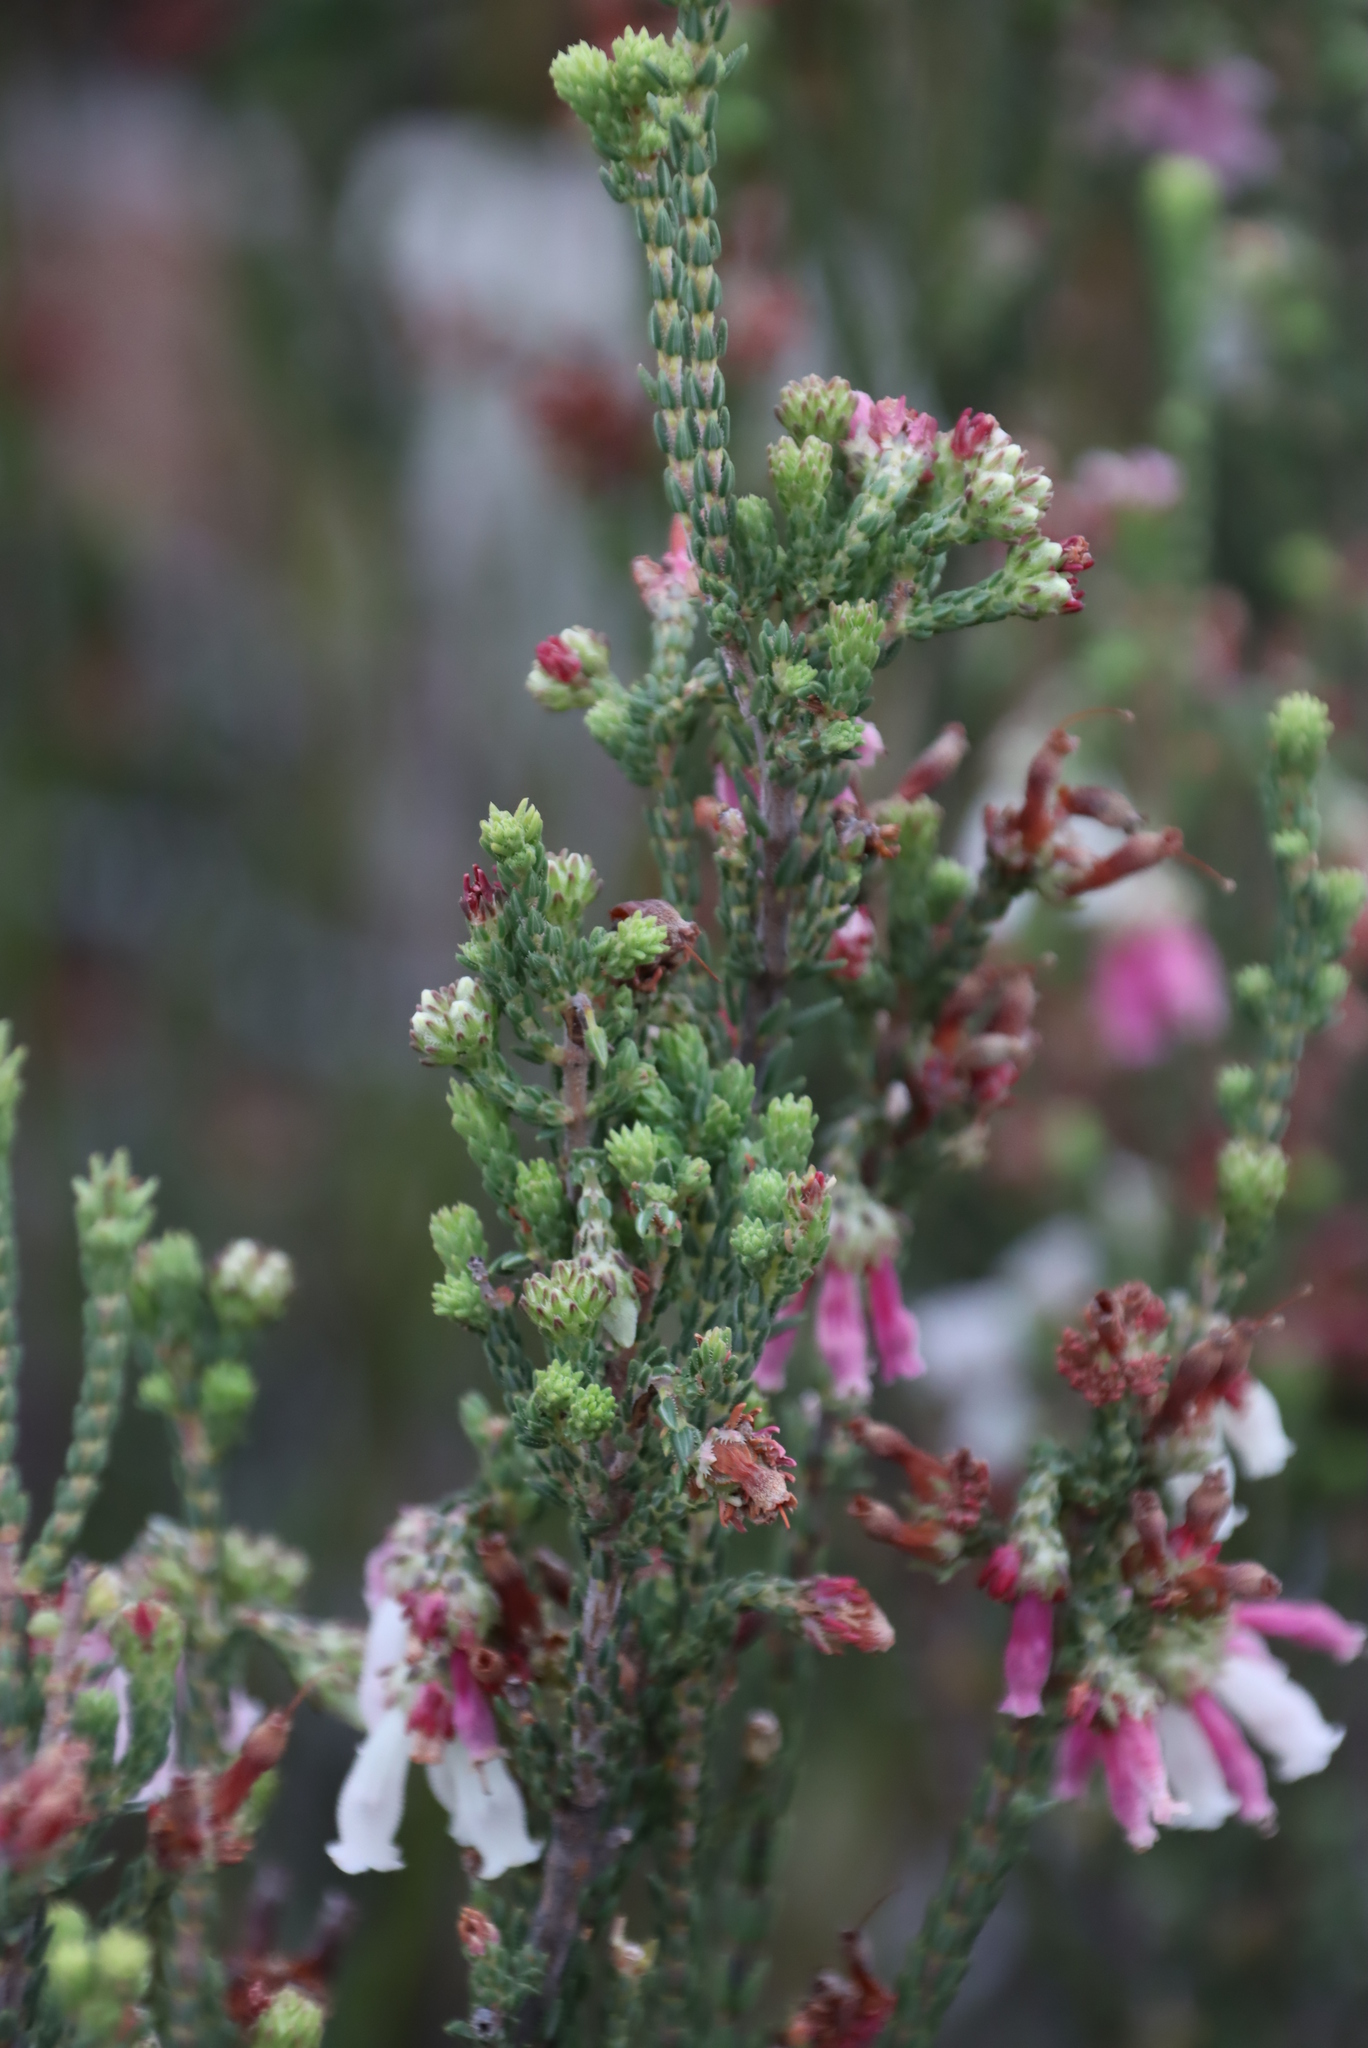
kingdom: Plantae
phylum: Tracheophyta
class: Magnoliopsida
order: Ericales
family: Ericaceae
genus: Erica
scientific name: Erica pectinifolia
